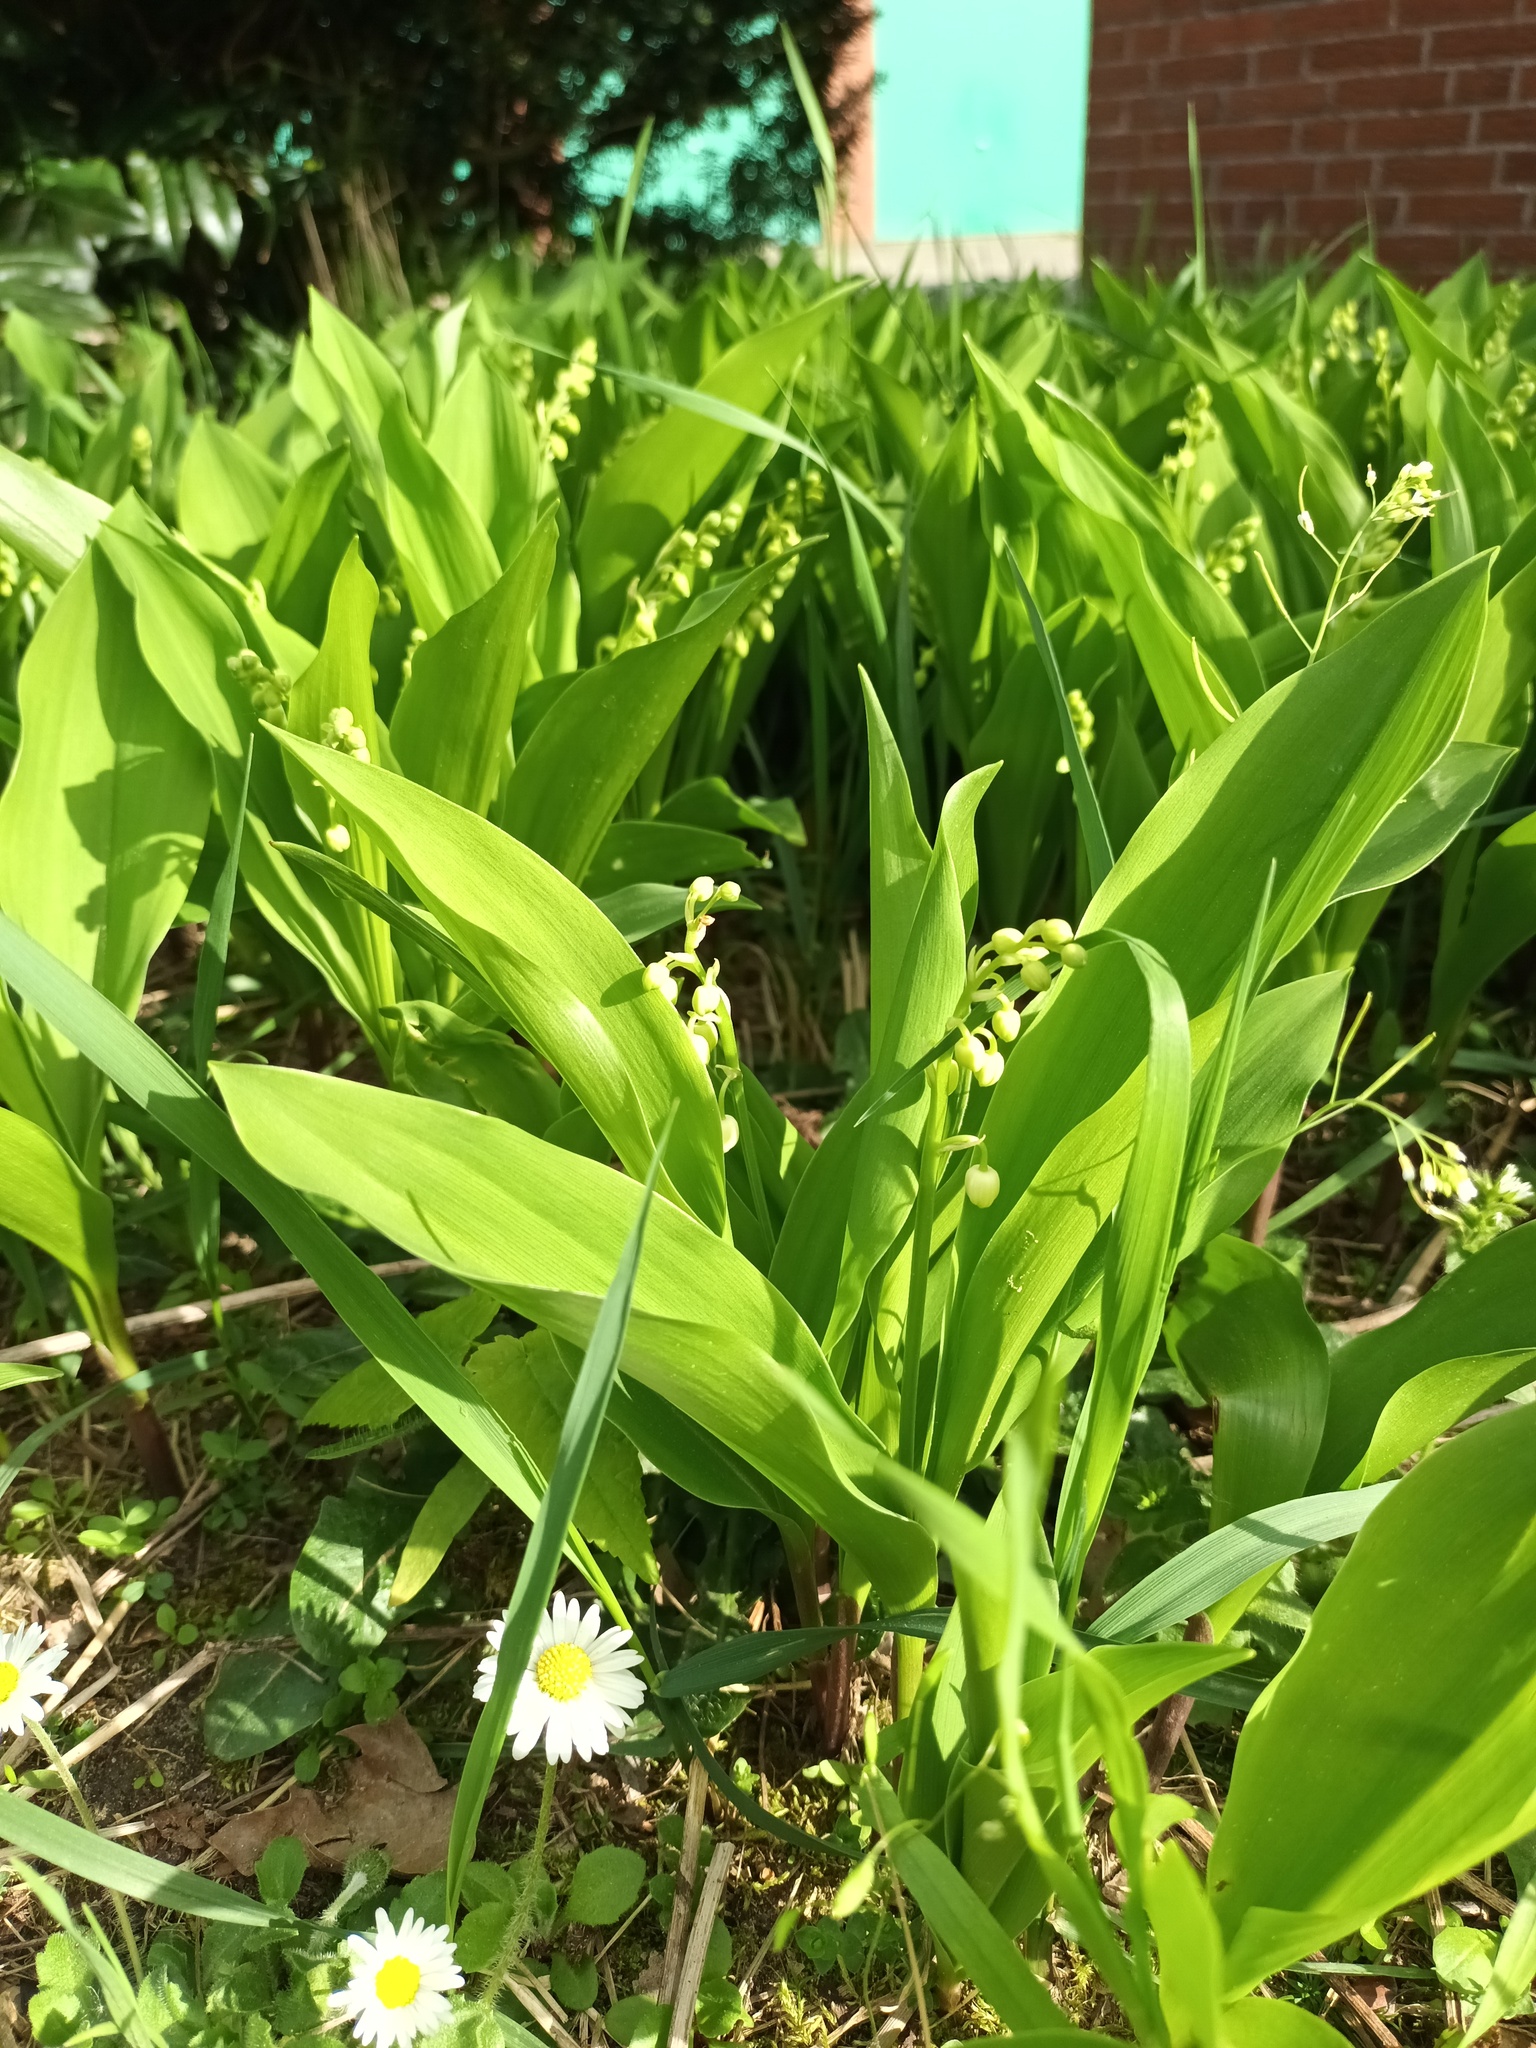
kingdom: Plantae
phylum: Tracheophyta
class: Liliopsida
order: Asparagales
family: Asparagaceae
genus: Convallaria
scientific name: Convallaria majalis
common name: Lily-of-the-valley
